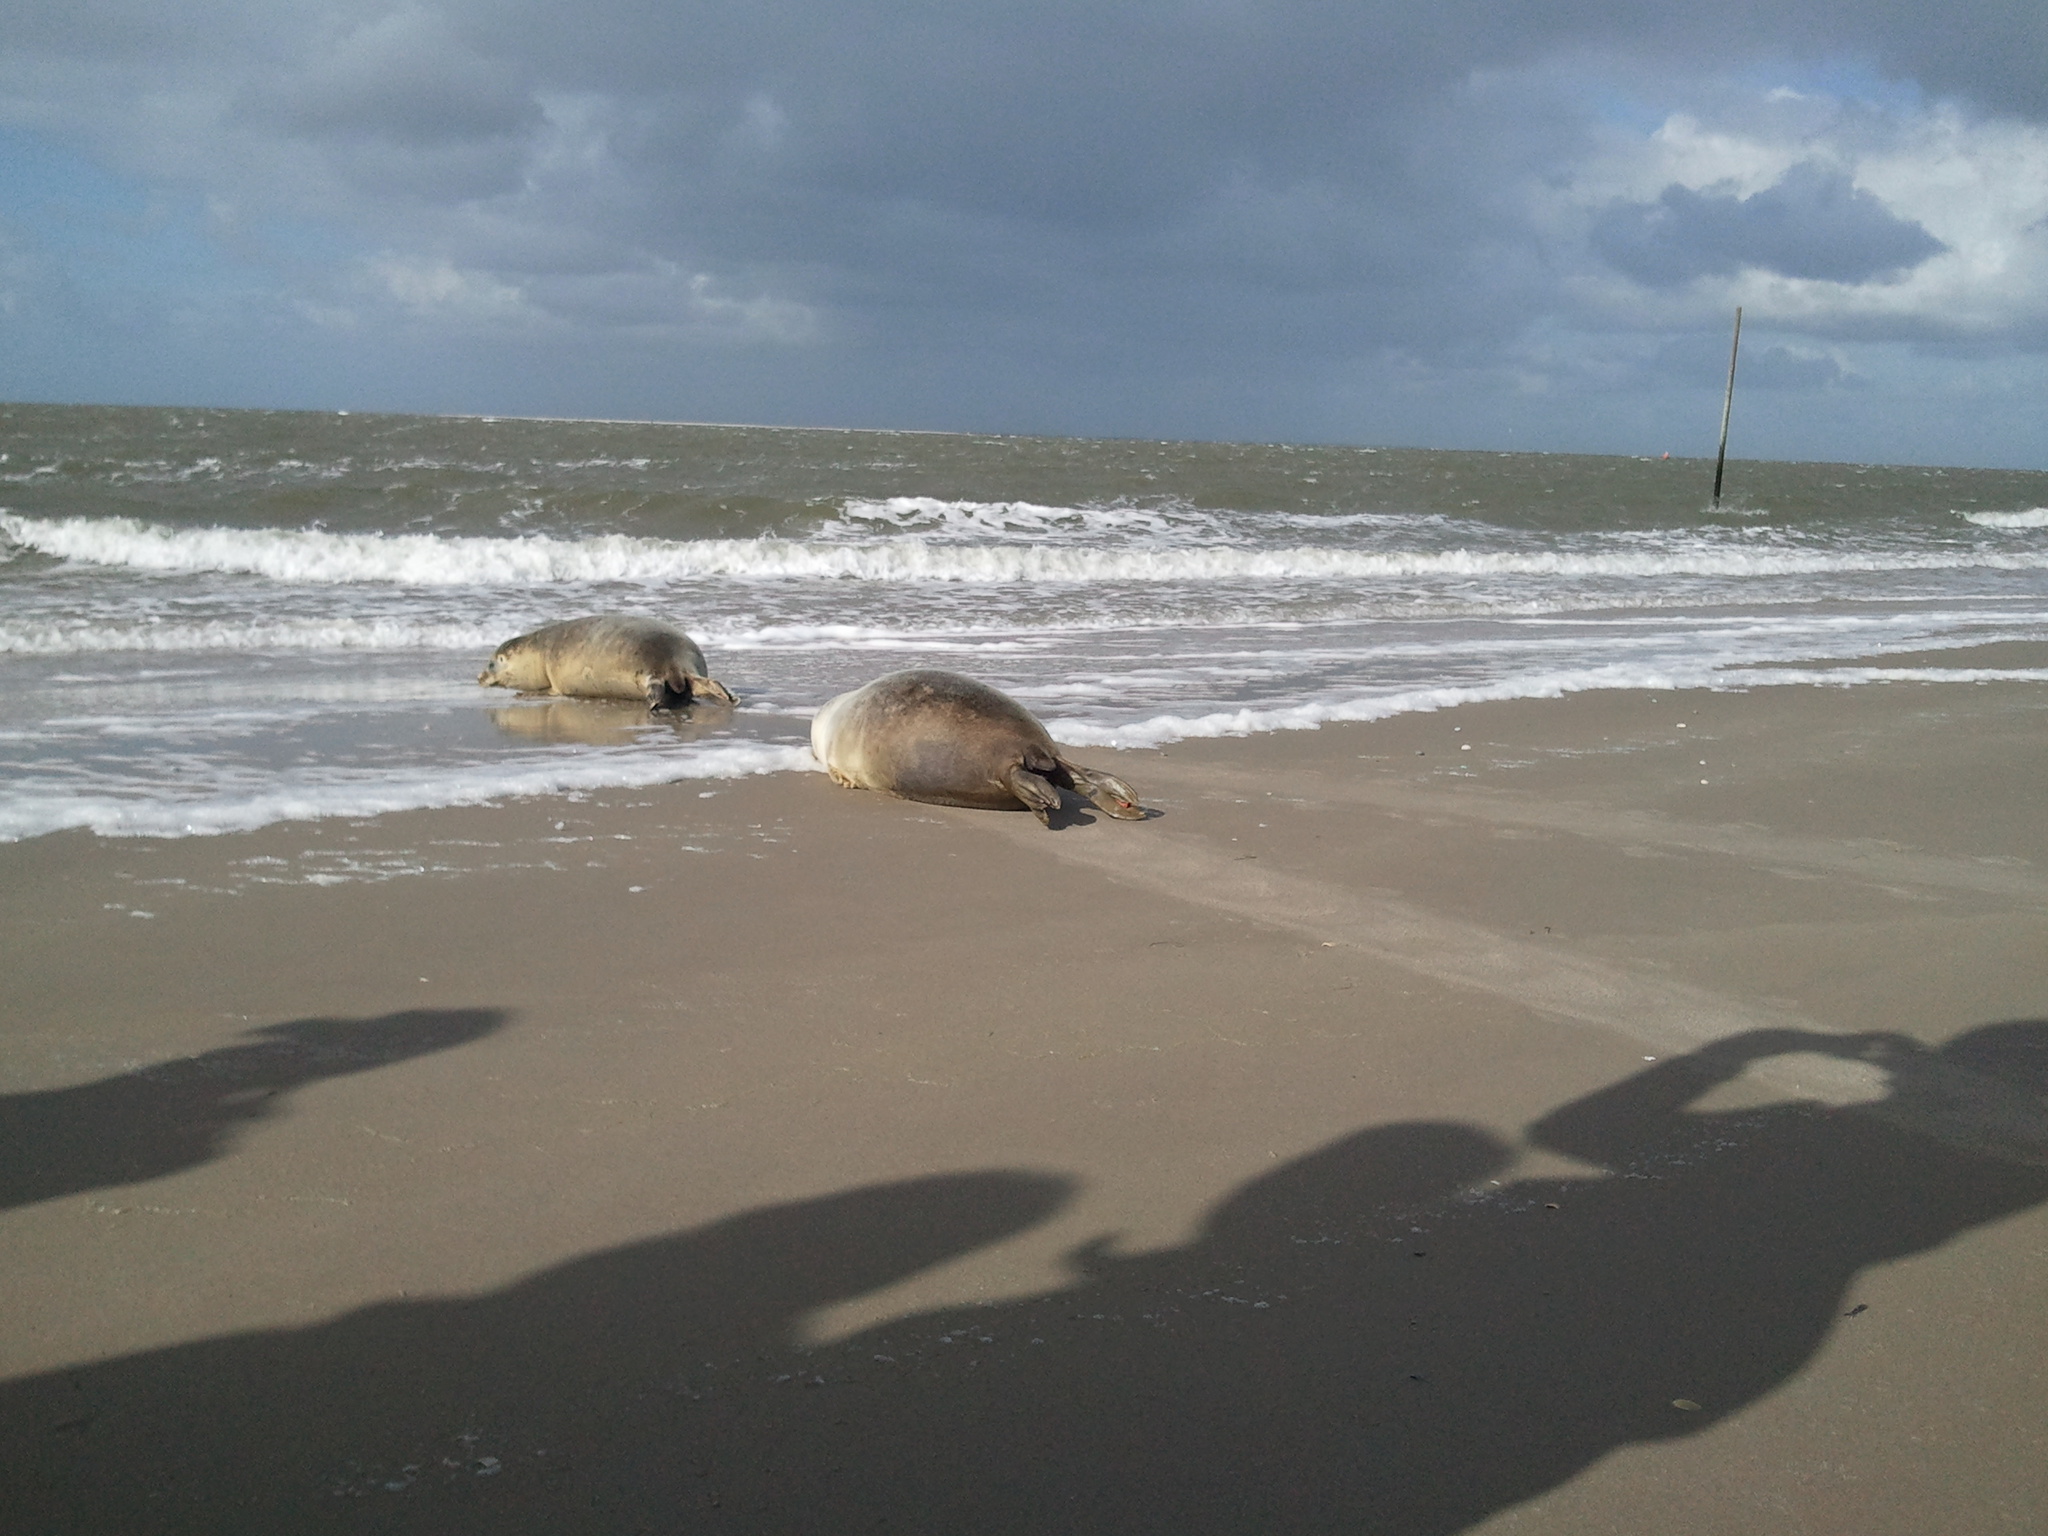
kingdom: Animalia
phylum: Chordata
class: Mammalia
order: Carnivora
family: Phocidae
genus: Phoca
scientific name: Phoca vitulina
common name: Harbor seal
